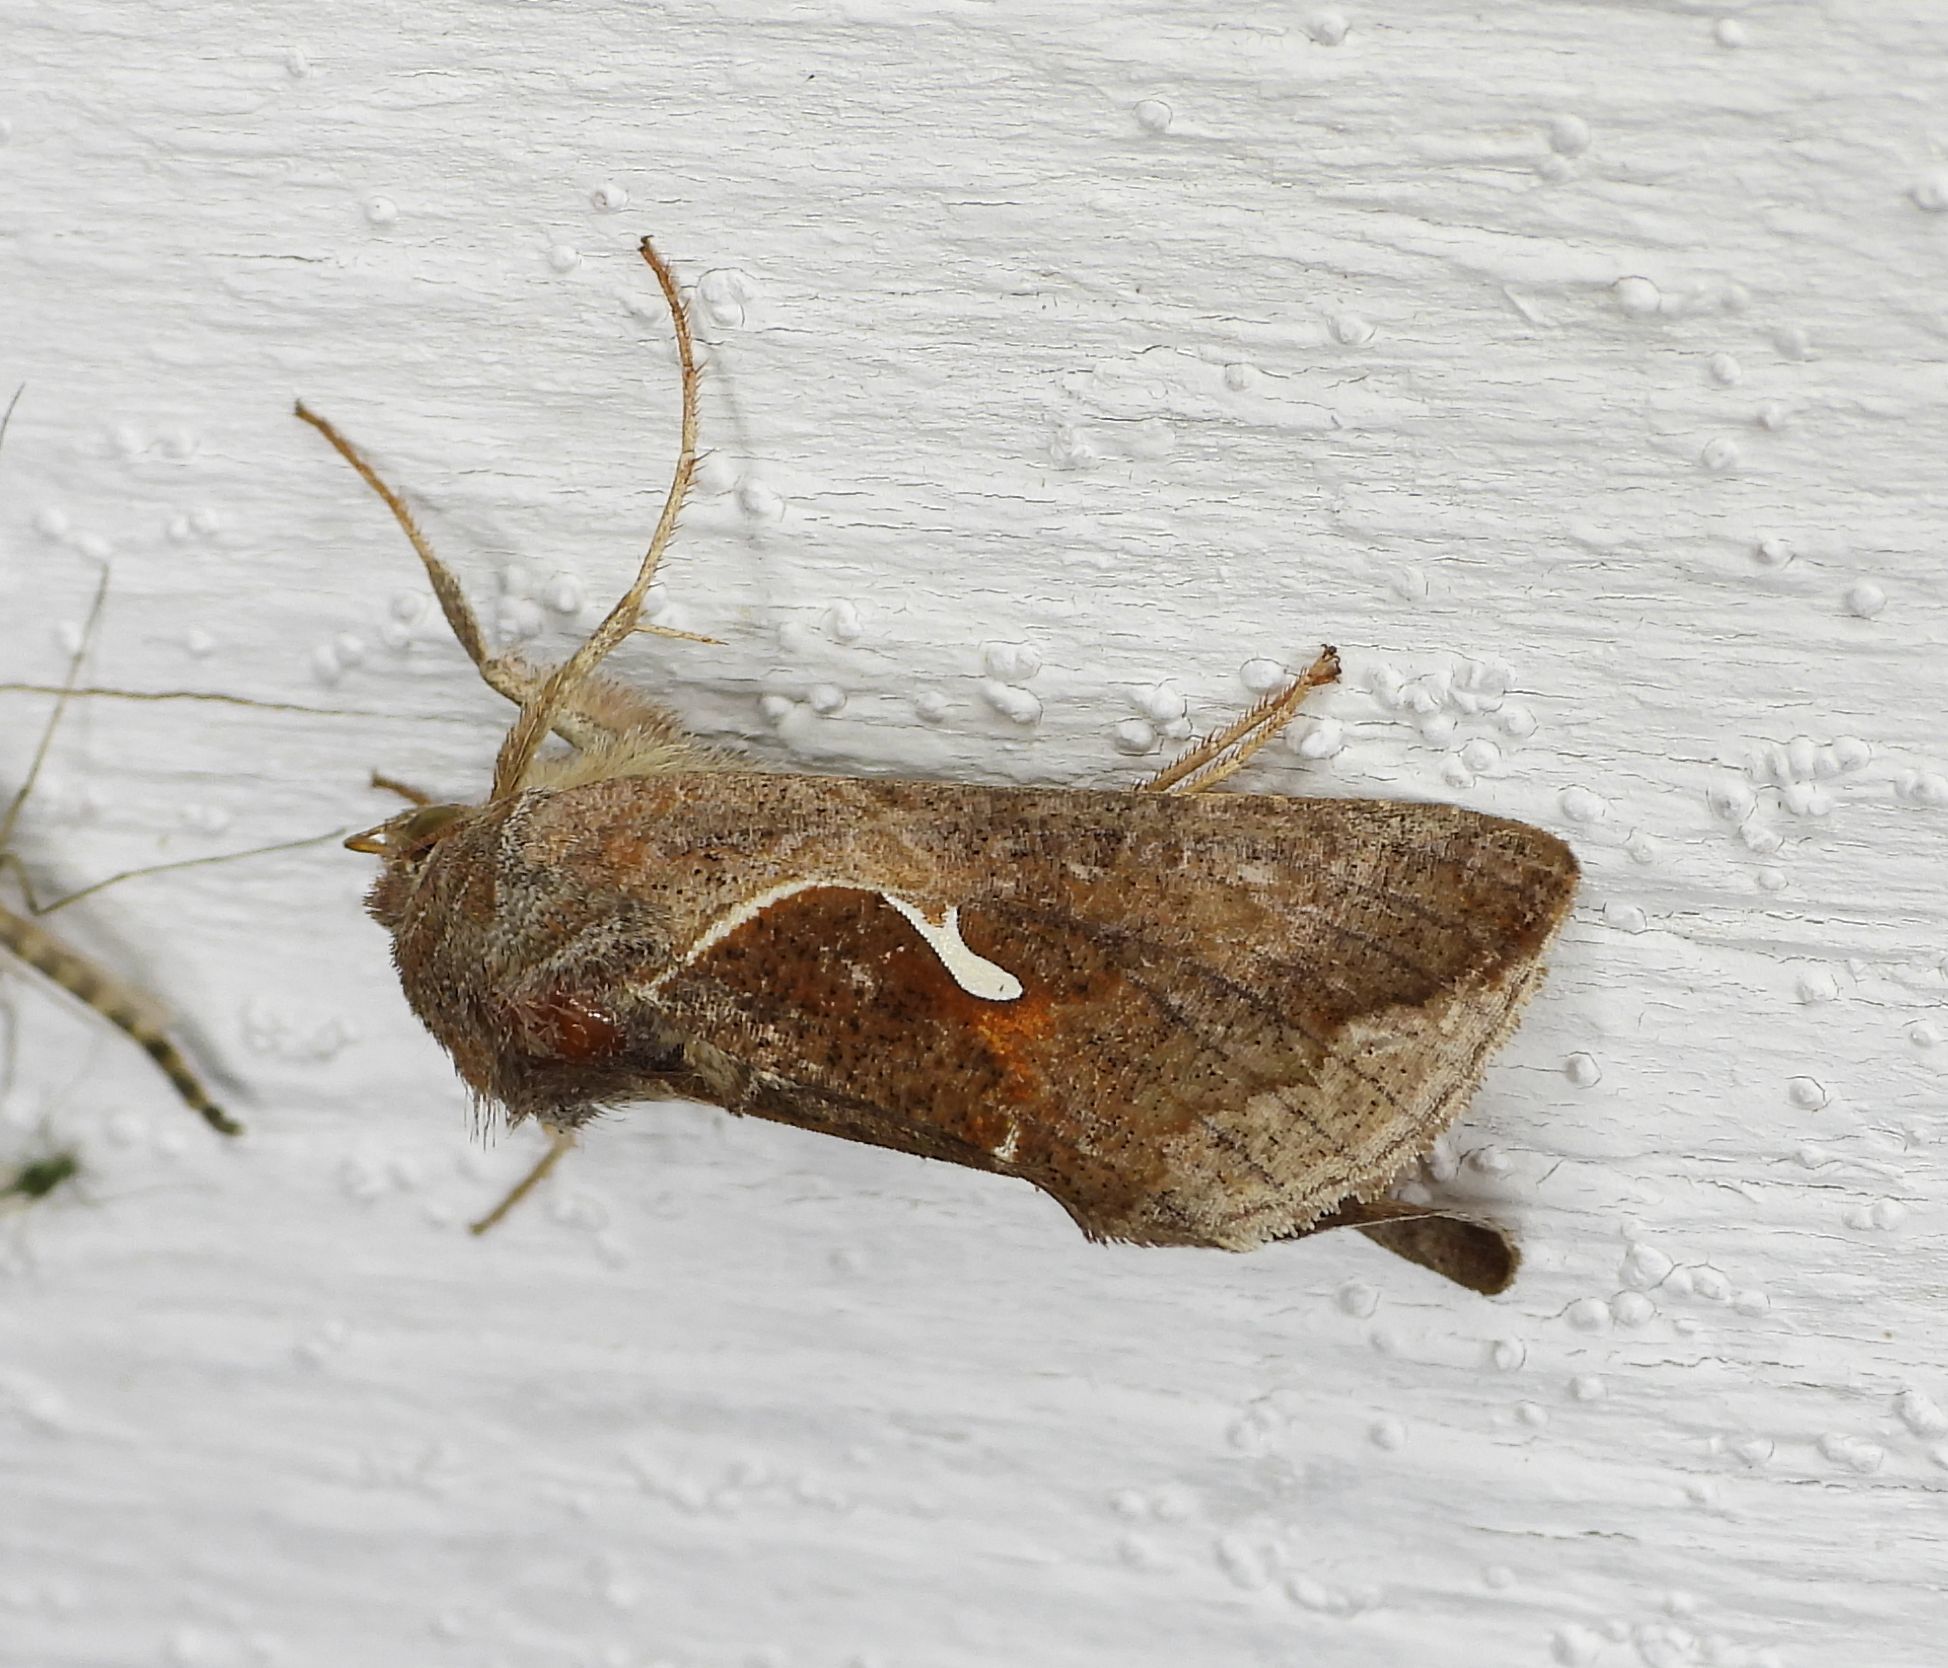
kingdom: Animalia
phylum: Arthropoda
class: Insecta
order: Lepidoptera
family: Noctuidae
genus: Anagrapha
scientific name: Anagrapha falcifera
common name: Celery looper
